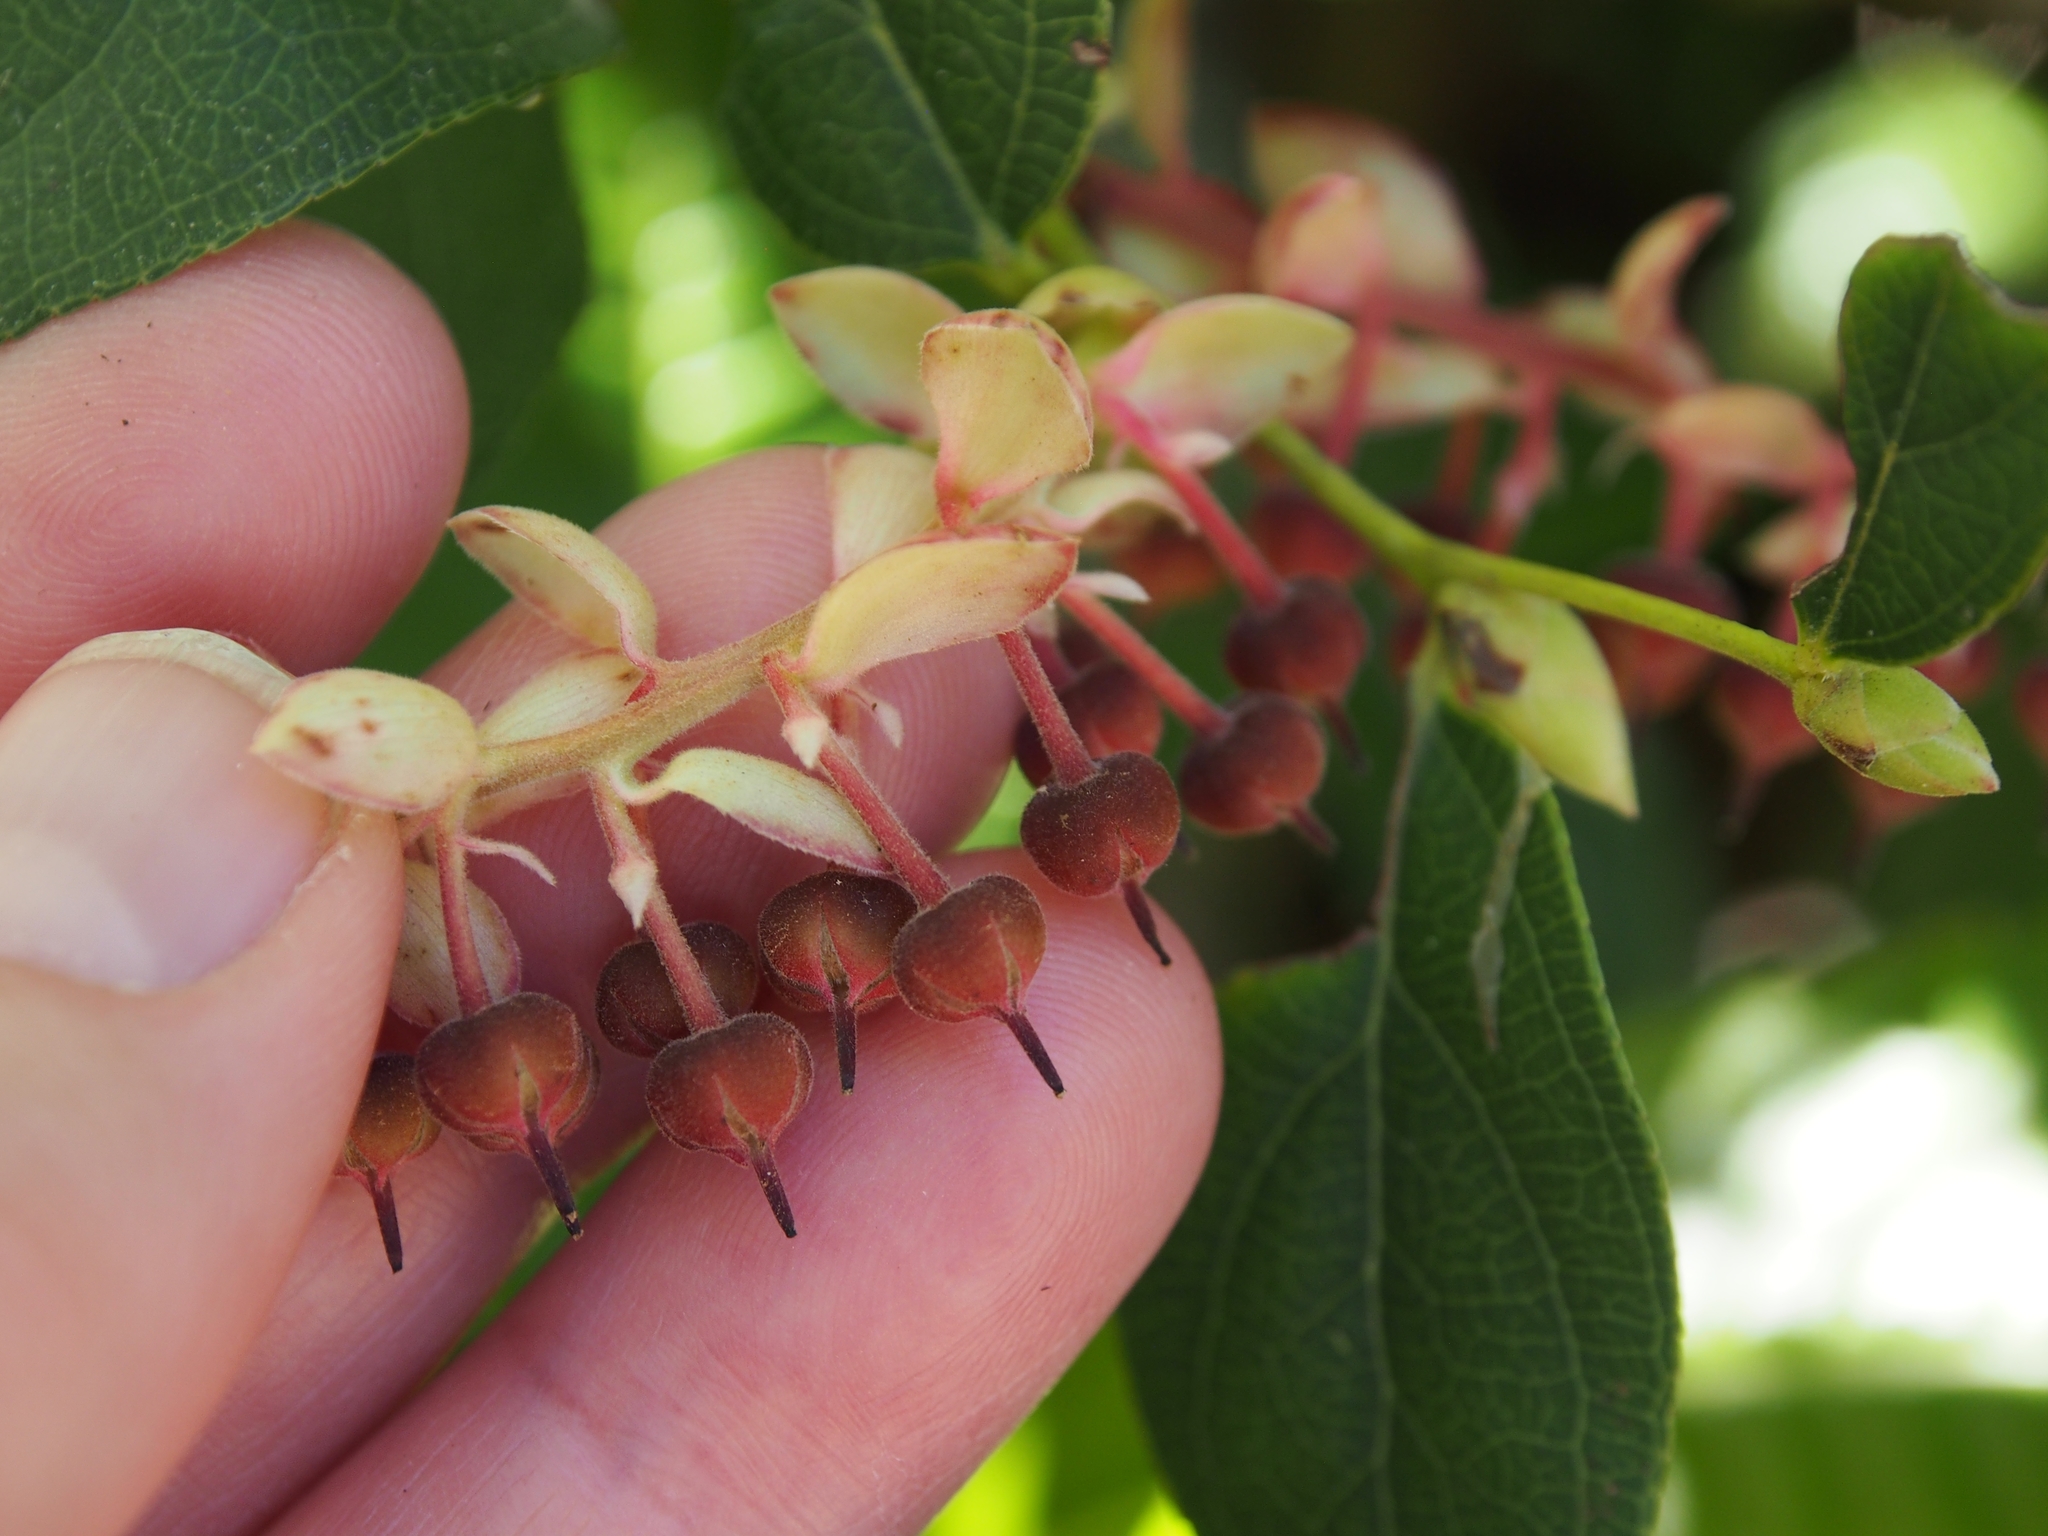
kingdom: Plantae
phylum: Tracheophyta
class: Magnoliopsida
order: Ericales
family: Ericaceae
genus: Gaultheria
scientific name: Gaultheria erecta
